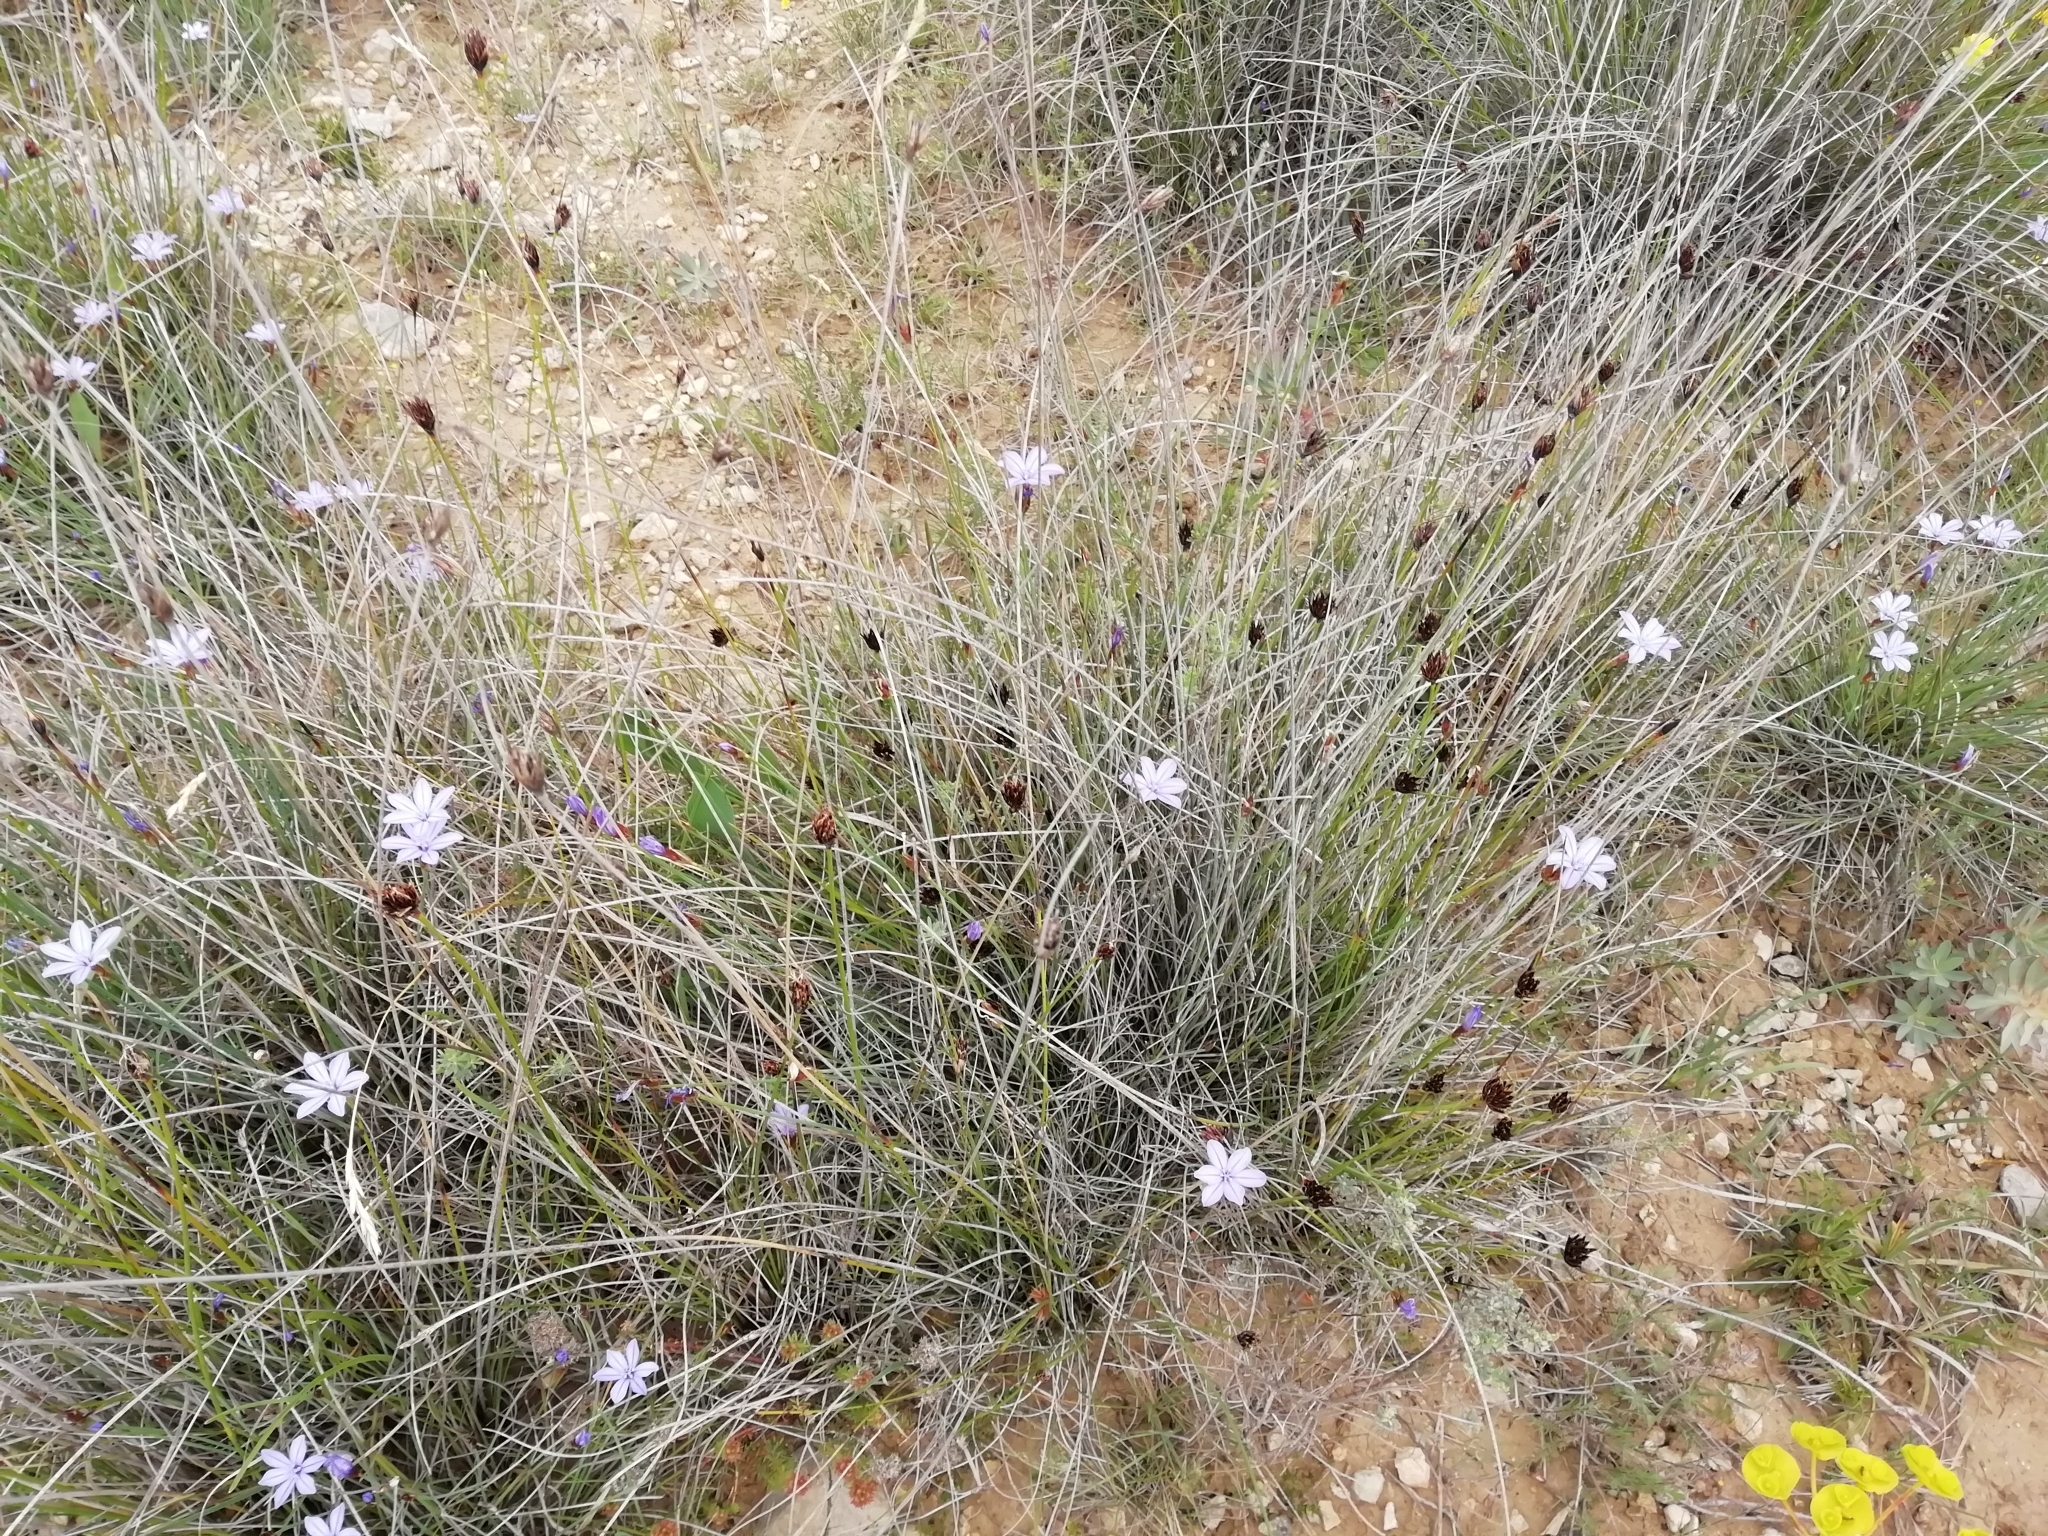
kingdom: Plantae
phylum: Tracheophyta
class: Liliopsida
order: Asparagales
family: Asparagaceae
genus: Aphyllanthes
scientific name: Aphyllanthes monspeliensis
